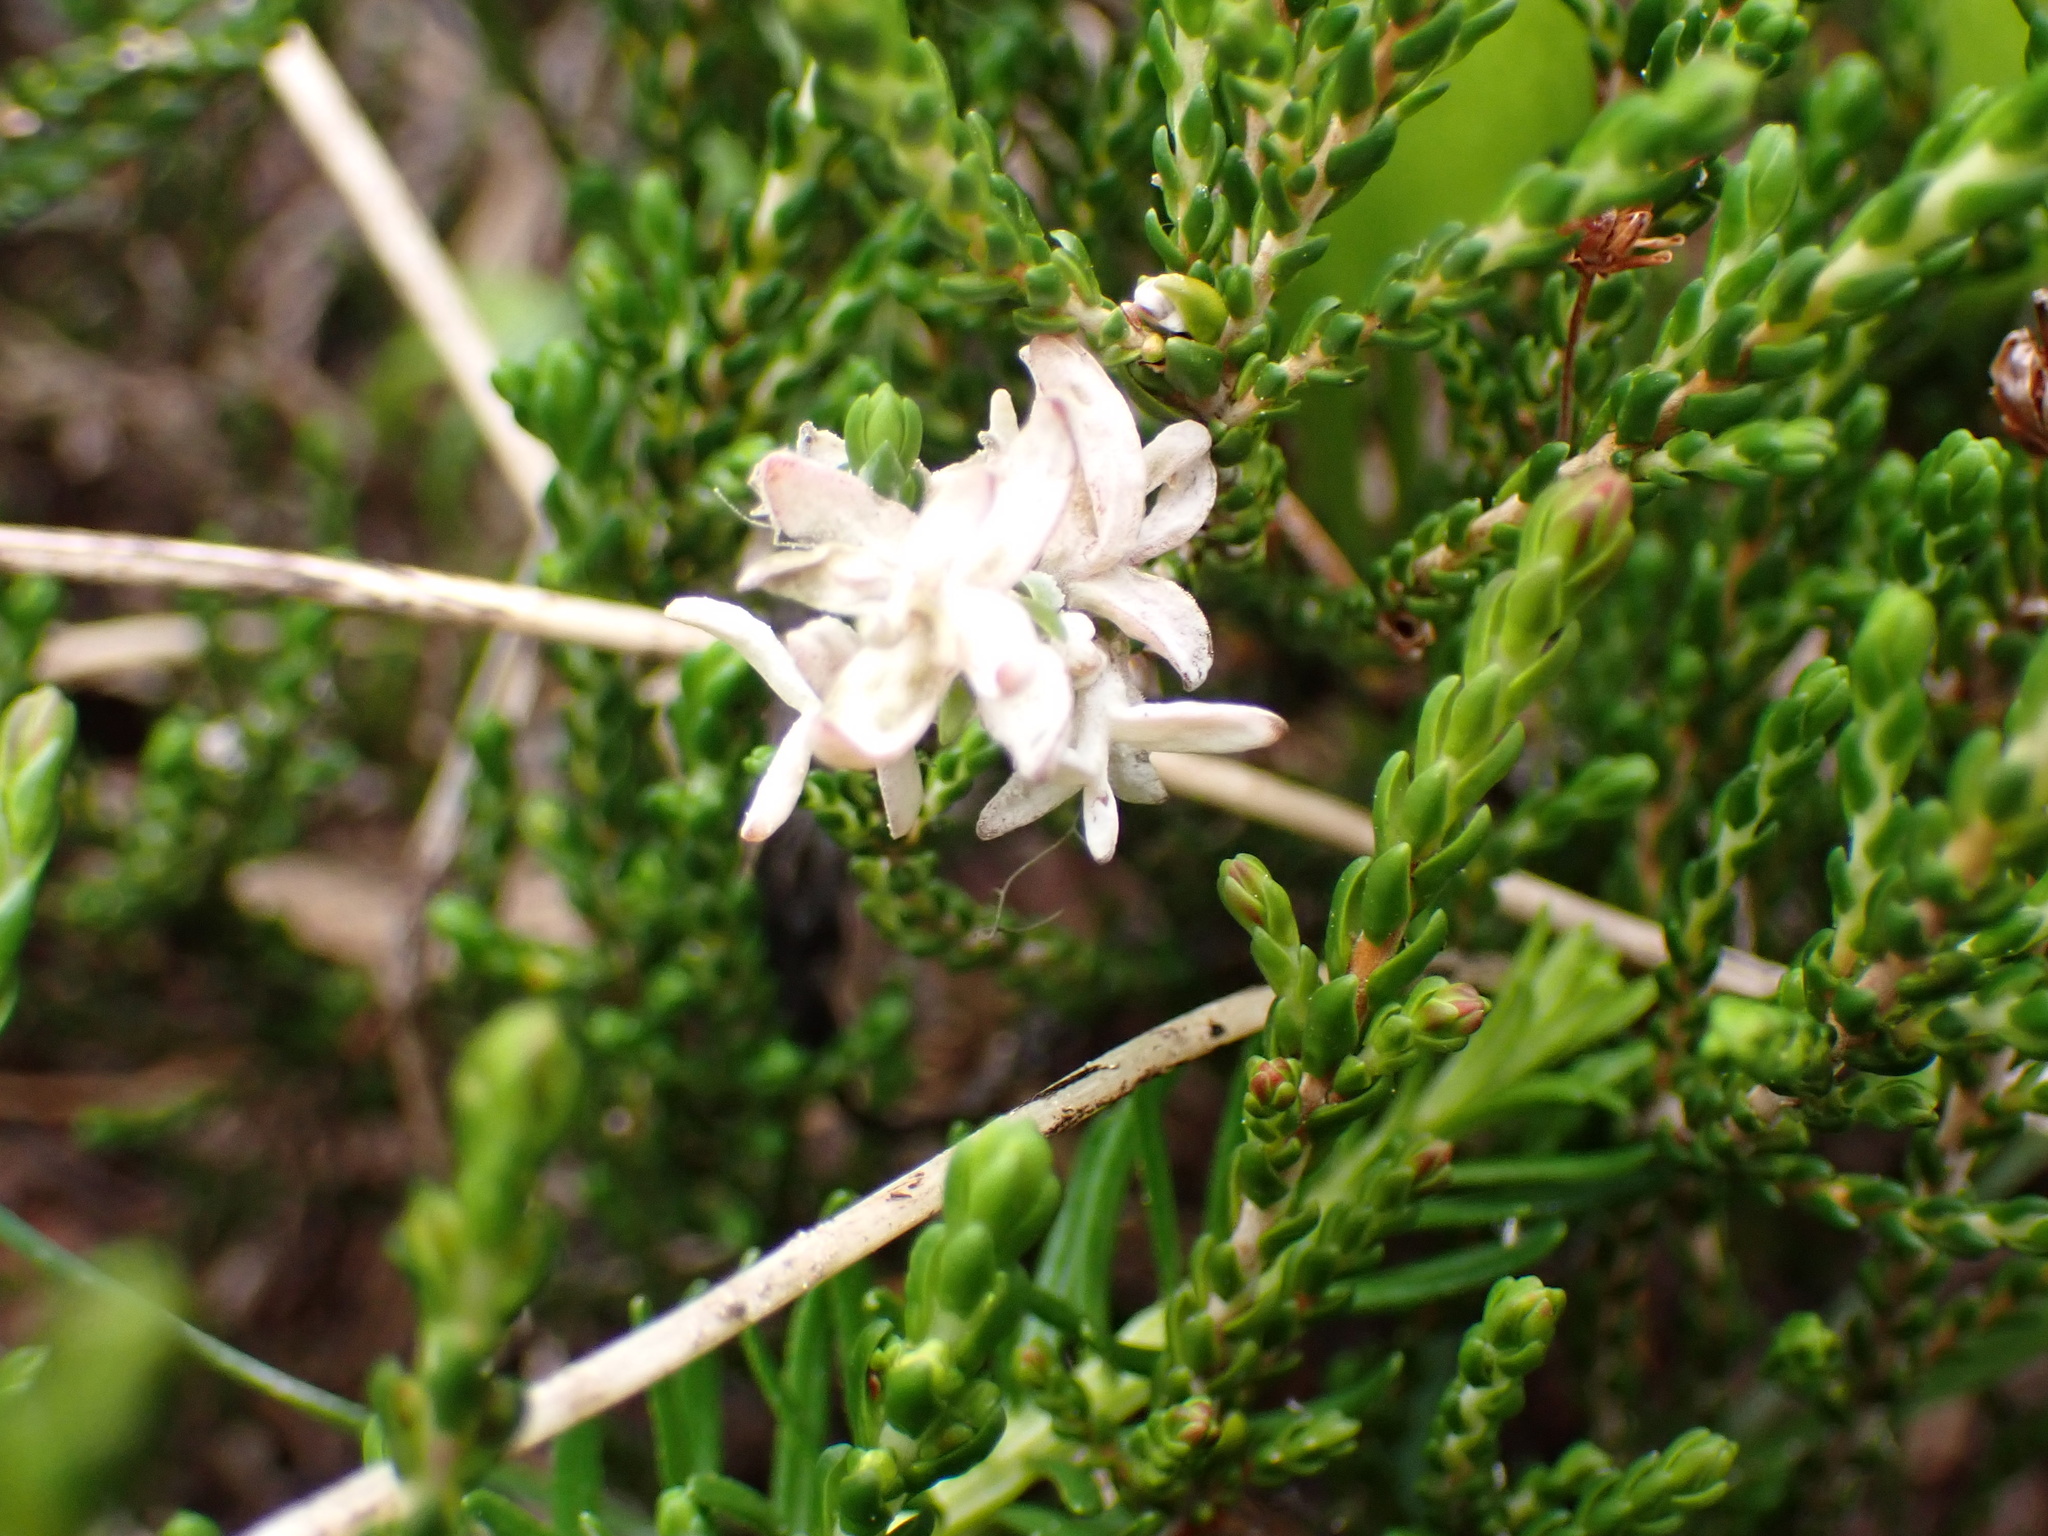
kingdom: Fungi
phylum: Basidiomycota
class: Exobasidiomycetes
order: Exobasidiales
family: Exobasidiaceae
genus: Exobasidium
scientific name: Exobasidium cassiopes
